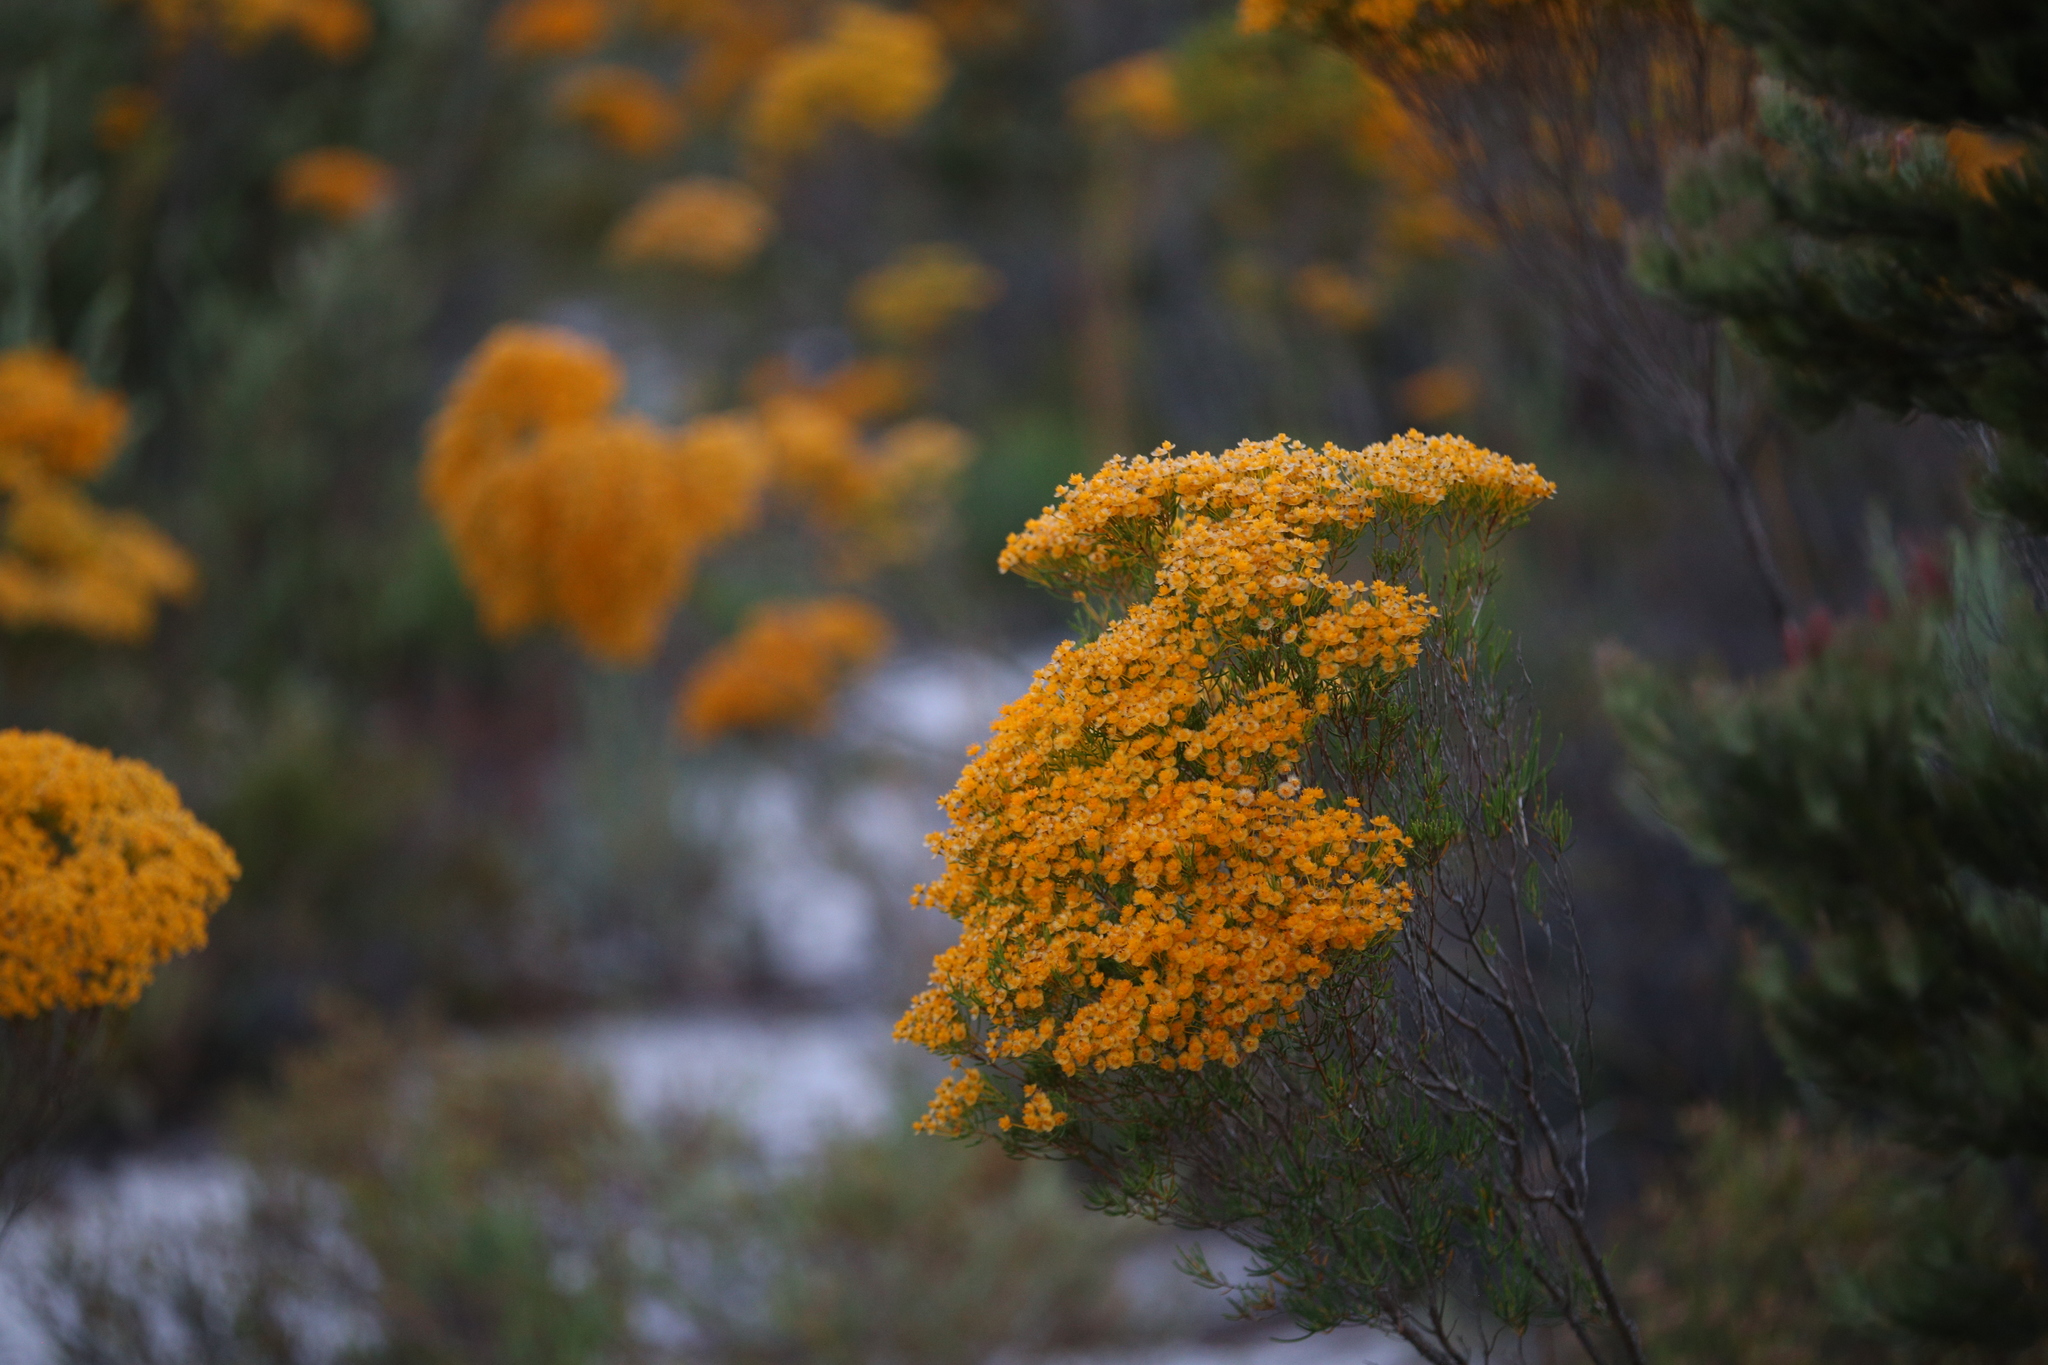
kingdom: Plantae
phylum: Tracheophyta
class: Magnoliopsida
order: Myrtales
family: Myrtaceae
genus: Verticordia
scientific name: Verticordia nitens
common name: Christmas morrison
